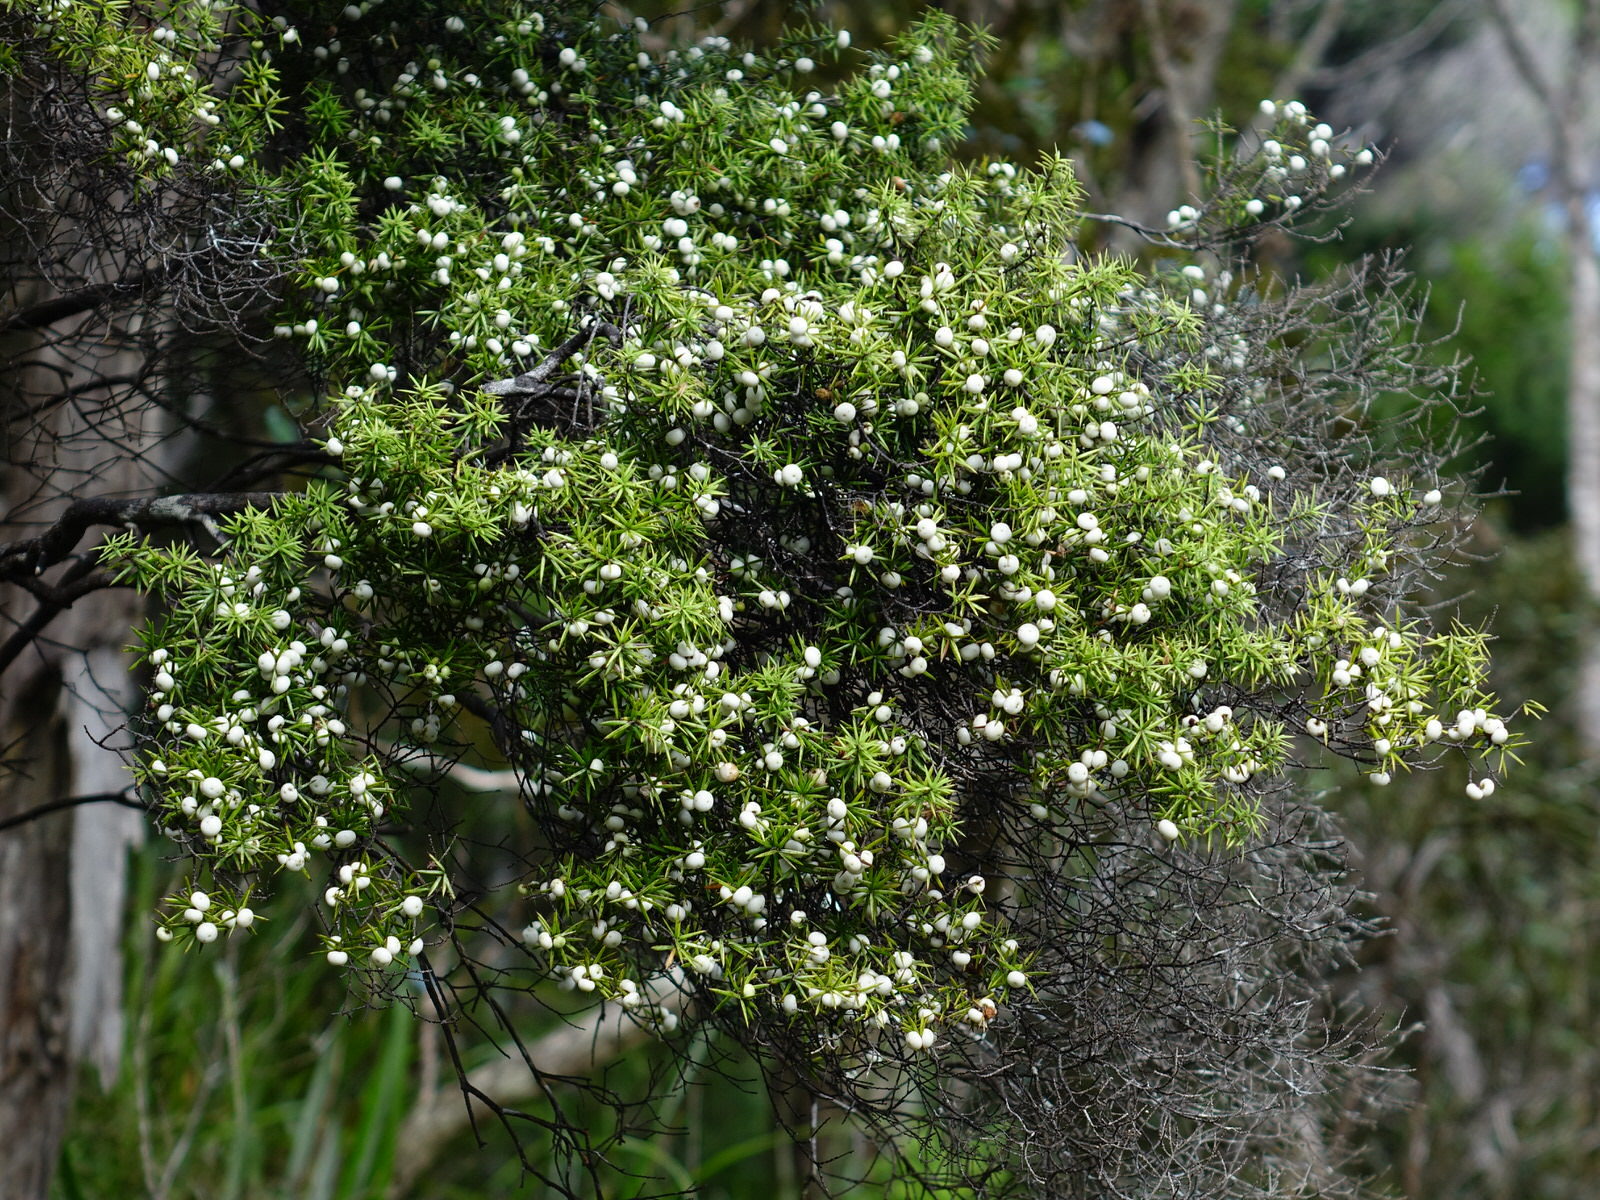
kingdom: Plantae
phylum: Tracheophyta
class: Magnoliopsida
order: Ericales
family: Ericaceae
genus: Leptecophylla
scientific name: Leptecophylla juniperina
